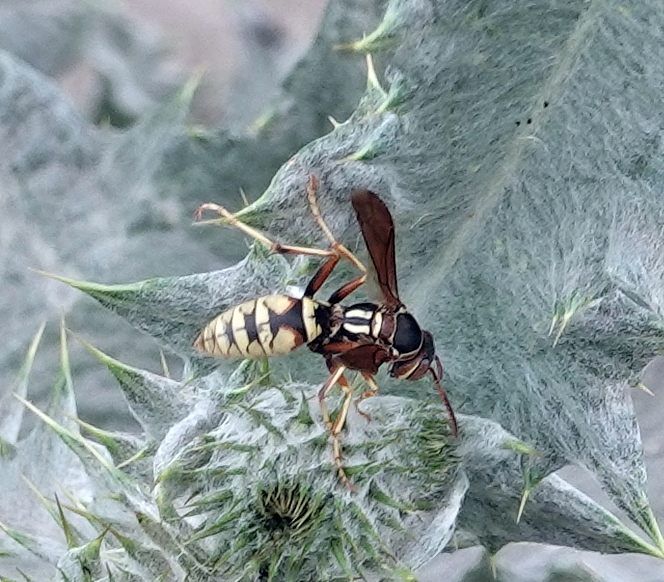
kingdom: Animalia
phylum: Arthropoda
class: Insecta
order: Hymenoptera
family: Eumenidae
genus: Polistes
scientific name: Polistes aurifer
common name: Paper wasp
